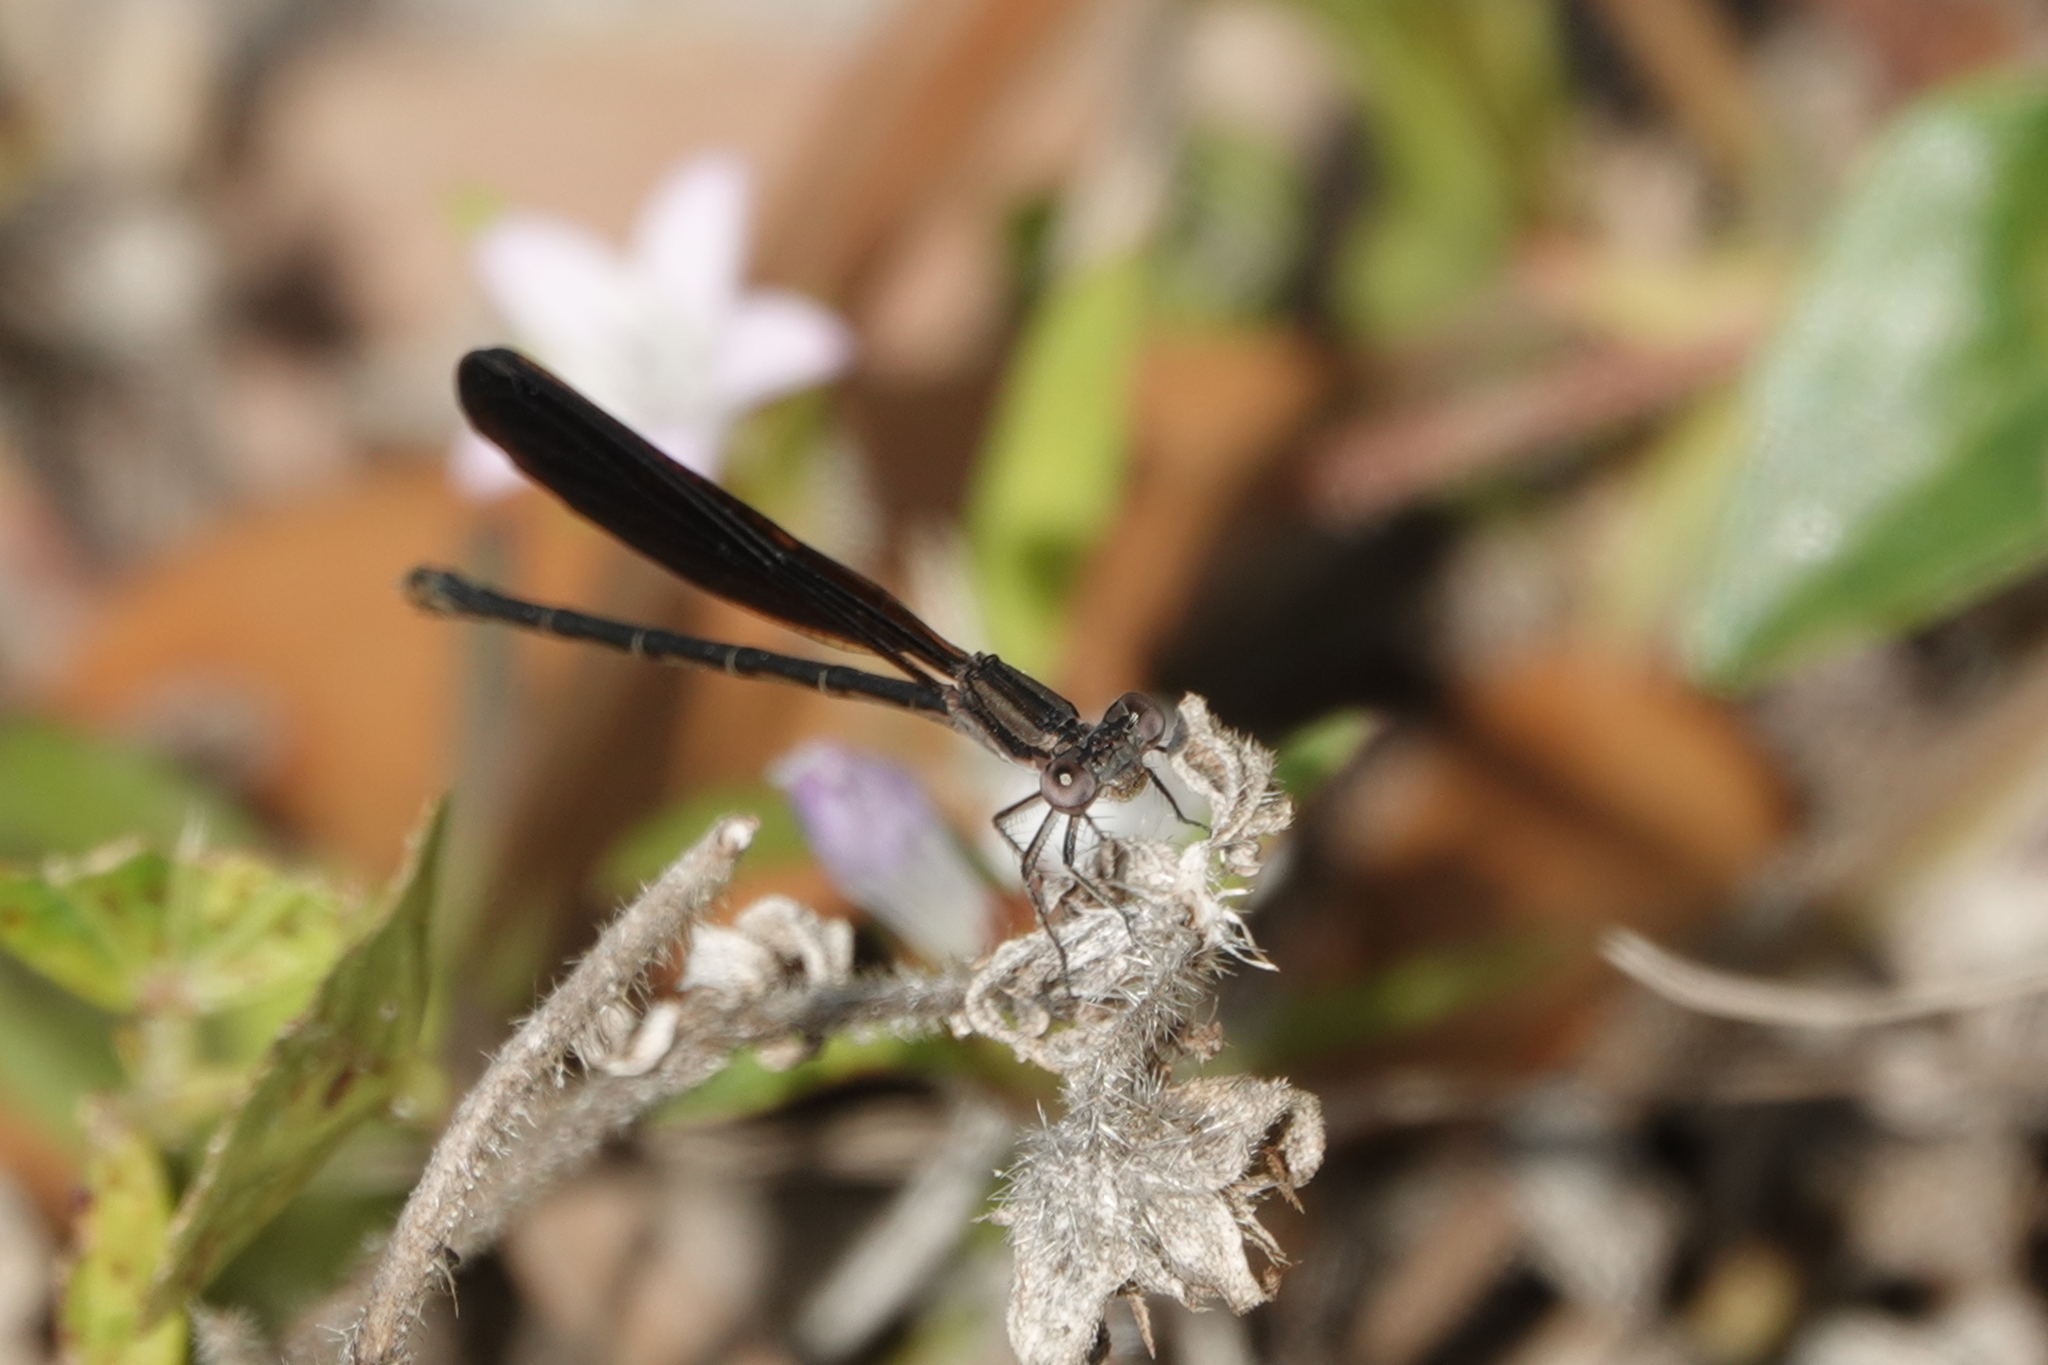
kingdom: Animalia
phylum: Arthropoda
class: Insecta
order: Odonata
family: Coenagrionidae
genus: Argia
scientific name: Argia fumipennis
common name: Variable dancer
